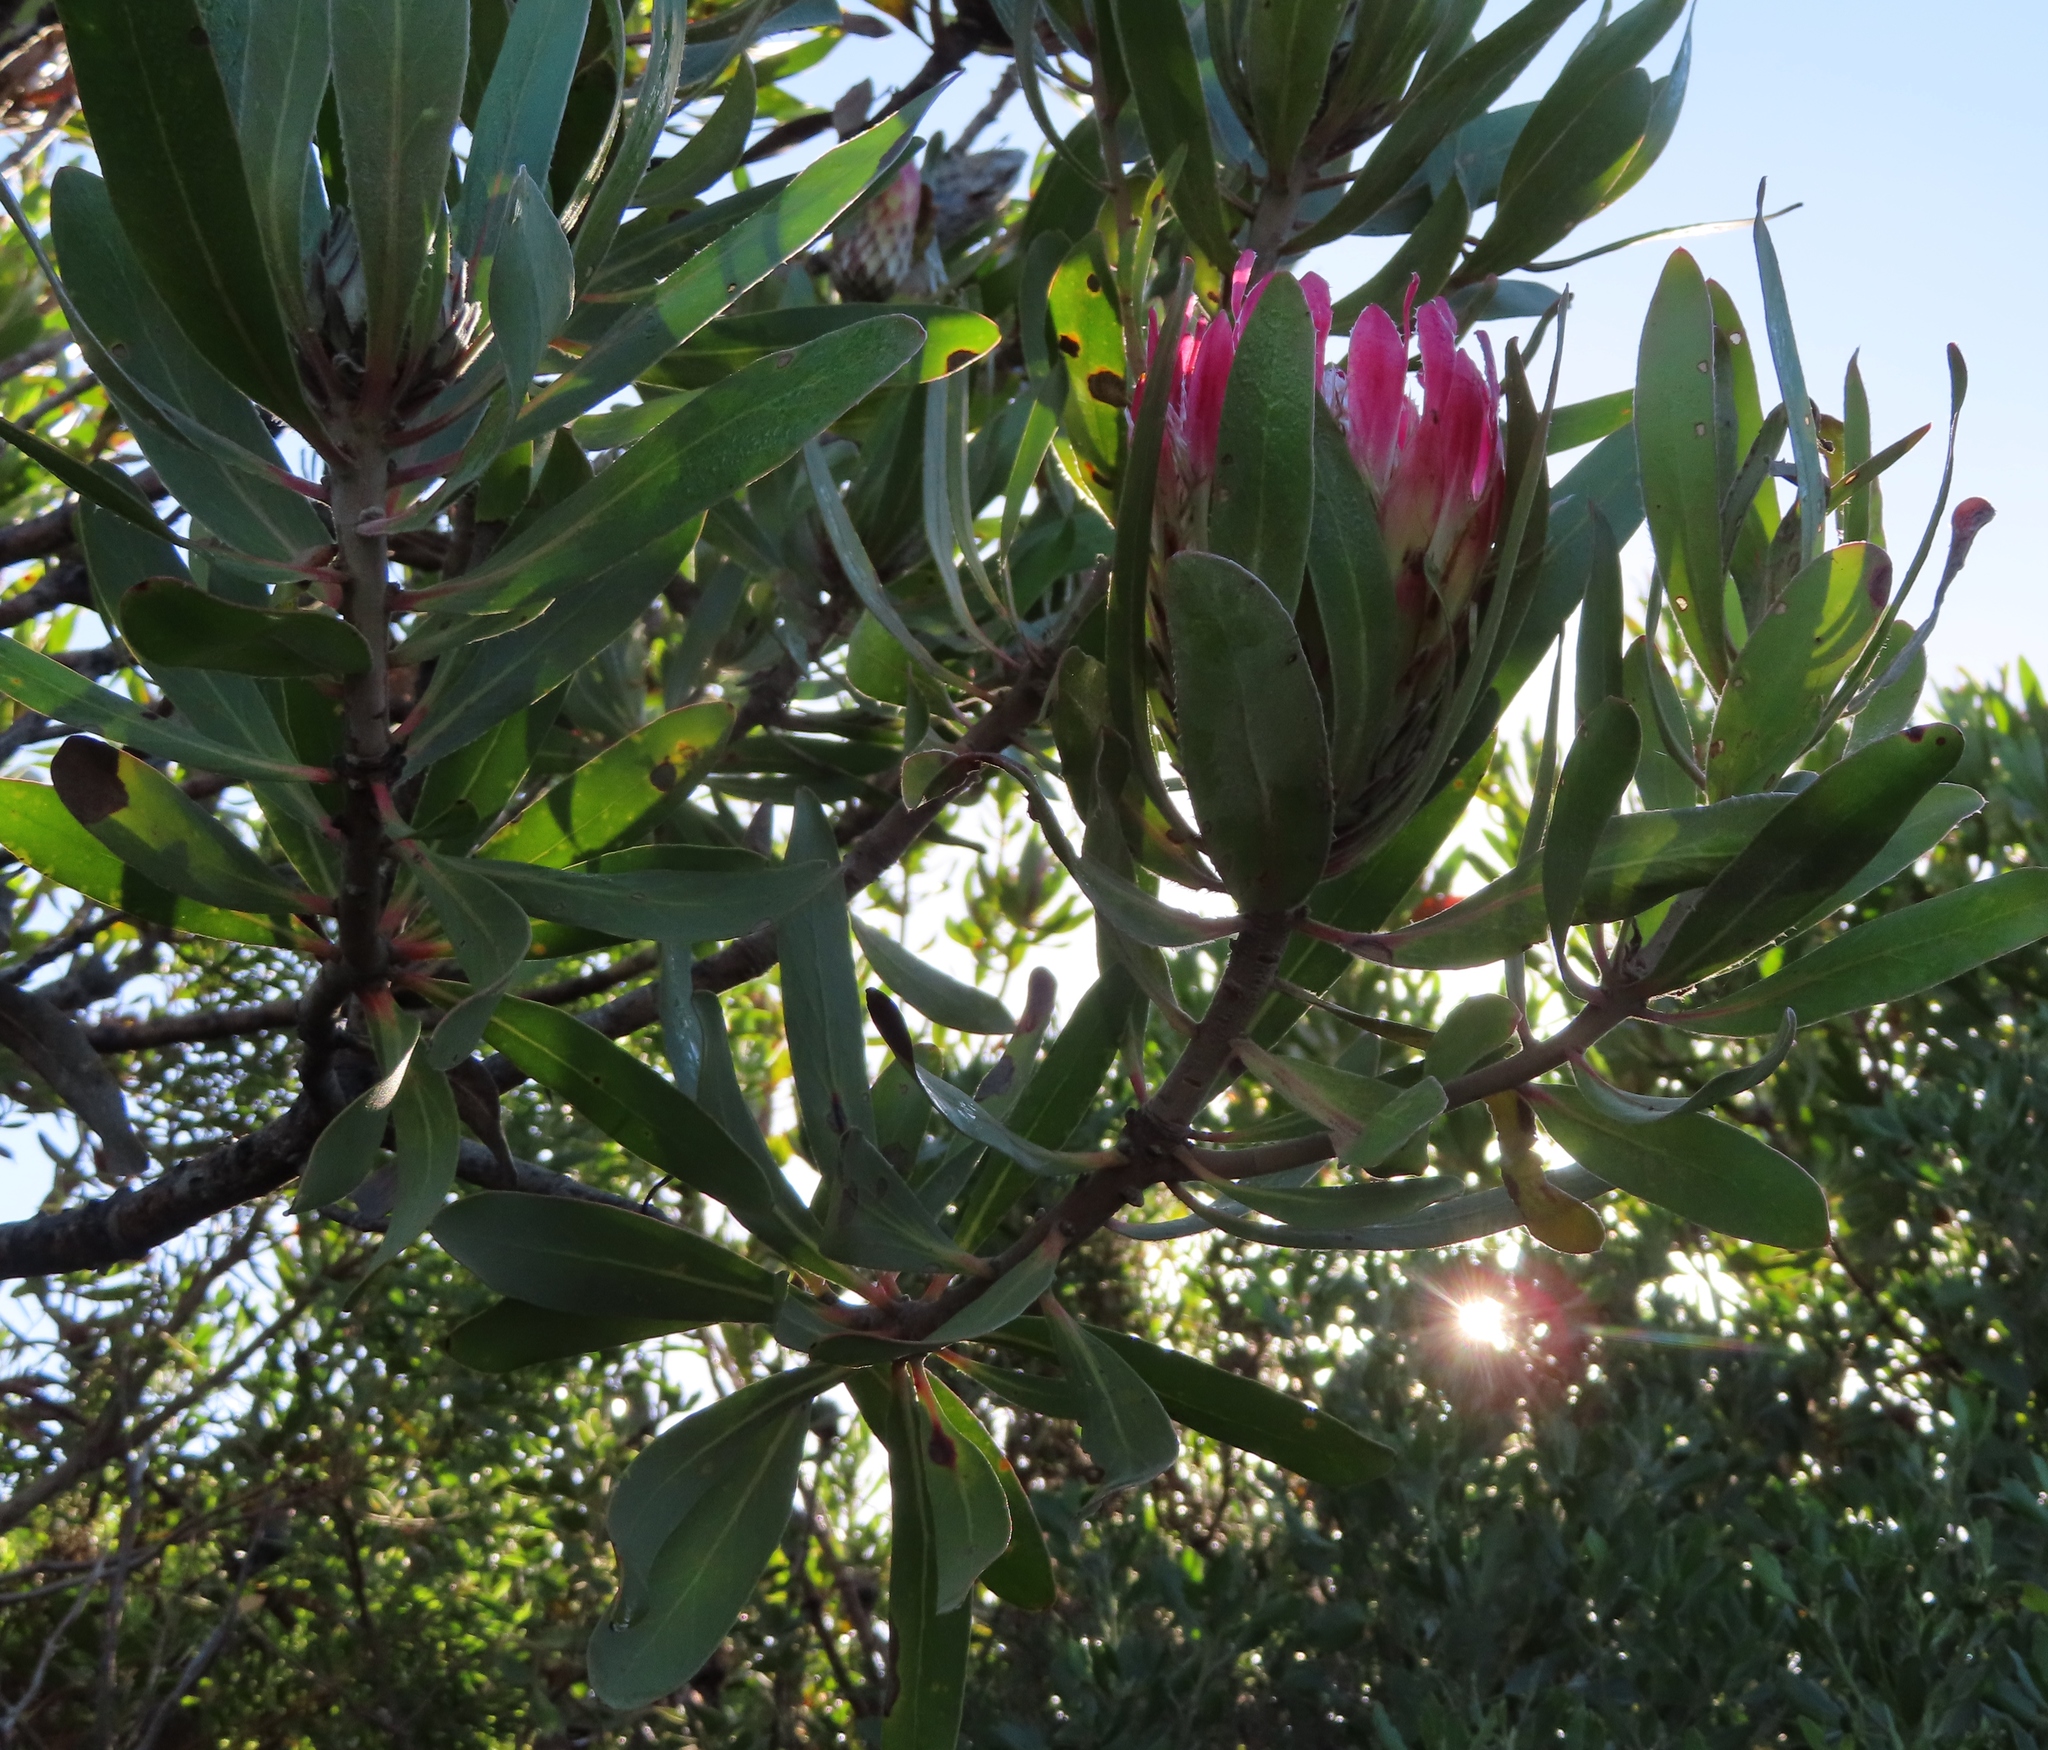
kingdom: Plantae
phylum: Tracheophyta
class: Magnoliopsida
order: Proteales
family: Proteaceae
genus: Protea
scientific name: Protea obtusifolia
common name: Bredasdorp sugarbush
